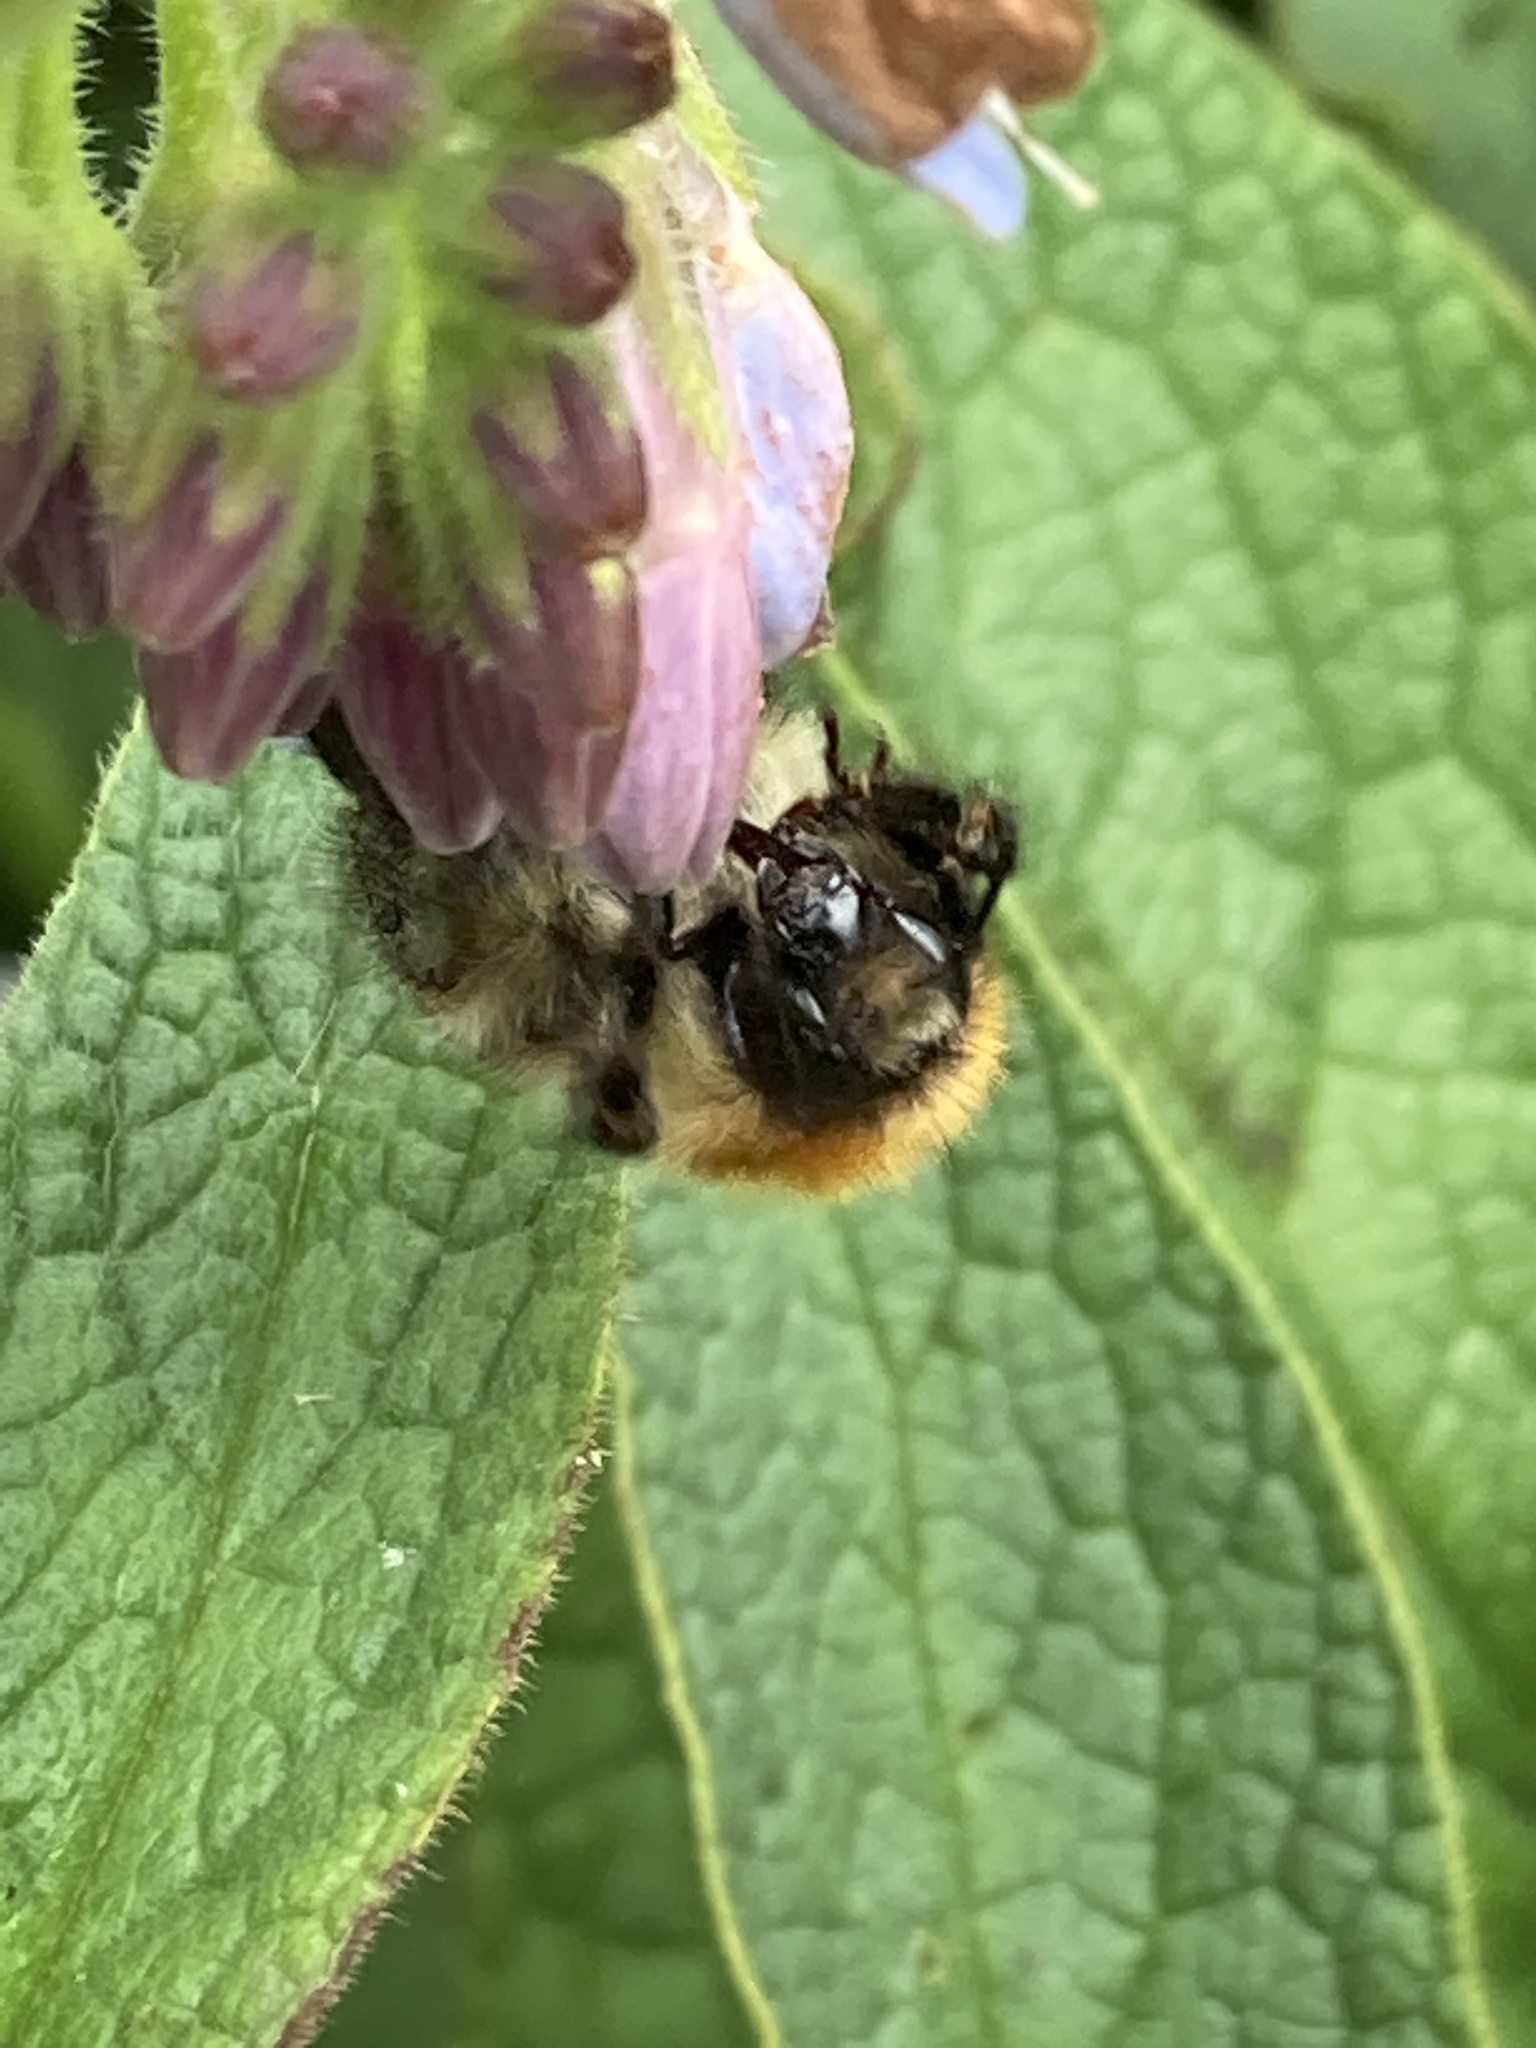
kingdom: Animalia
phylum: Arthropoda
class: Insecta
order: Hymenoptera
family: Apidae
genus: Bombus
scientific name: Bombus pascuorum
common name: Common carder bee
